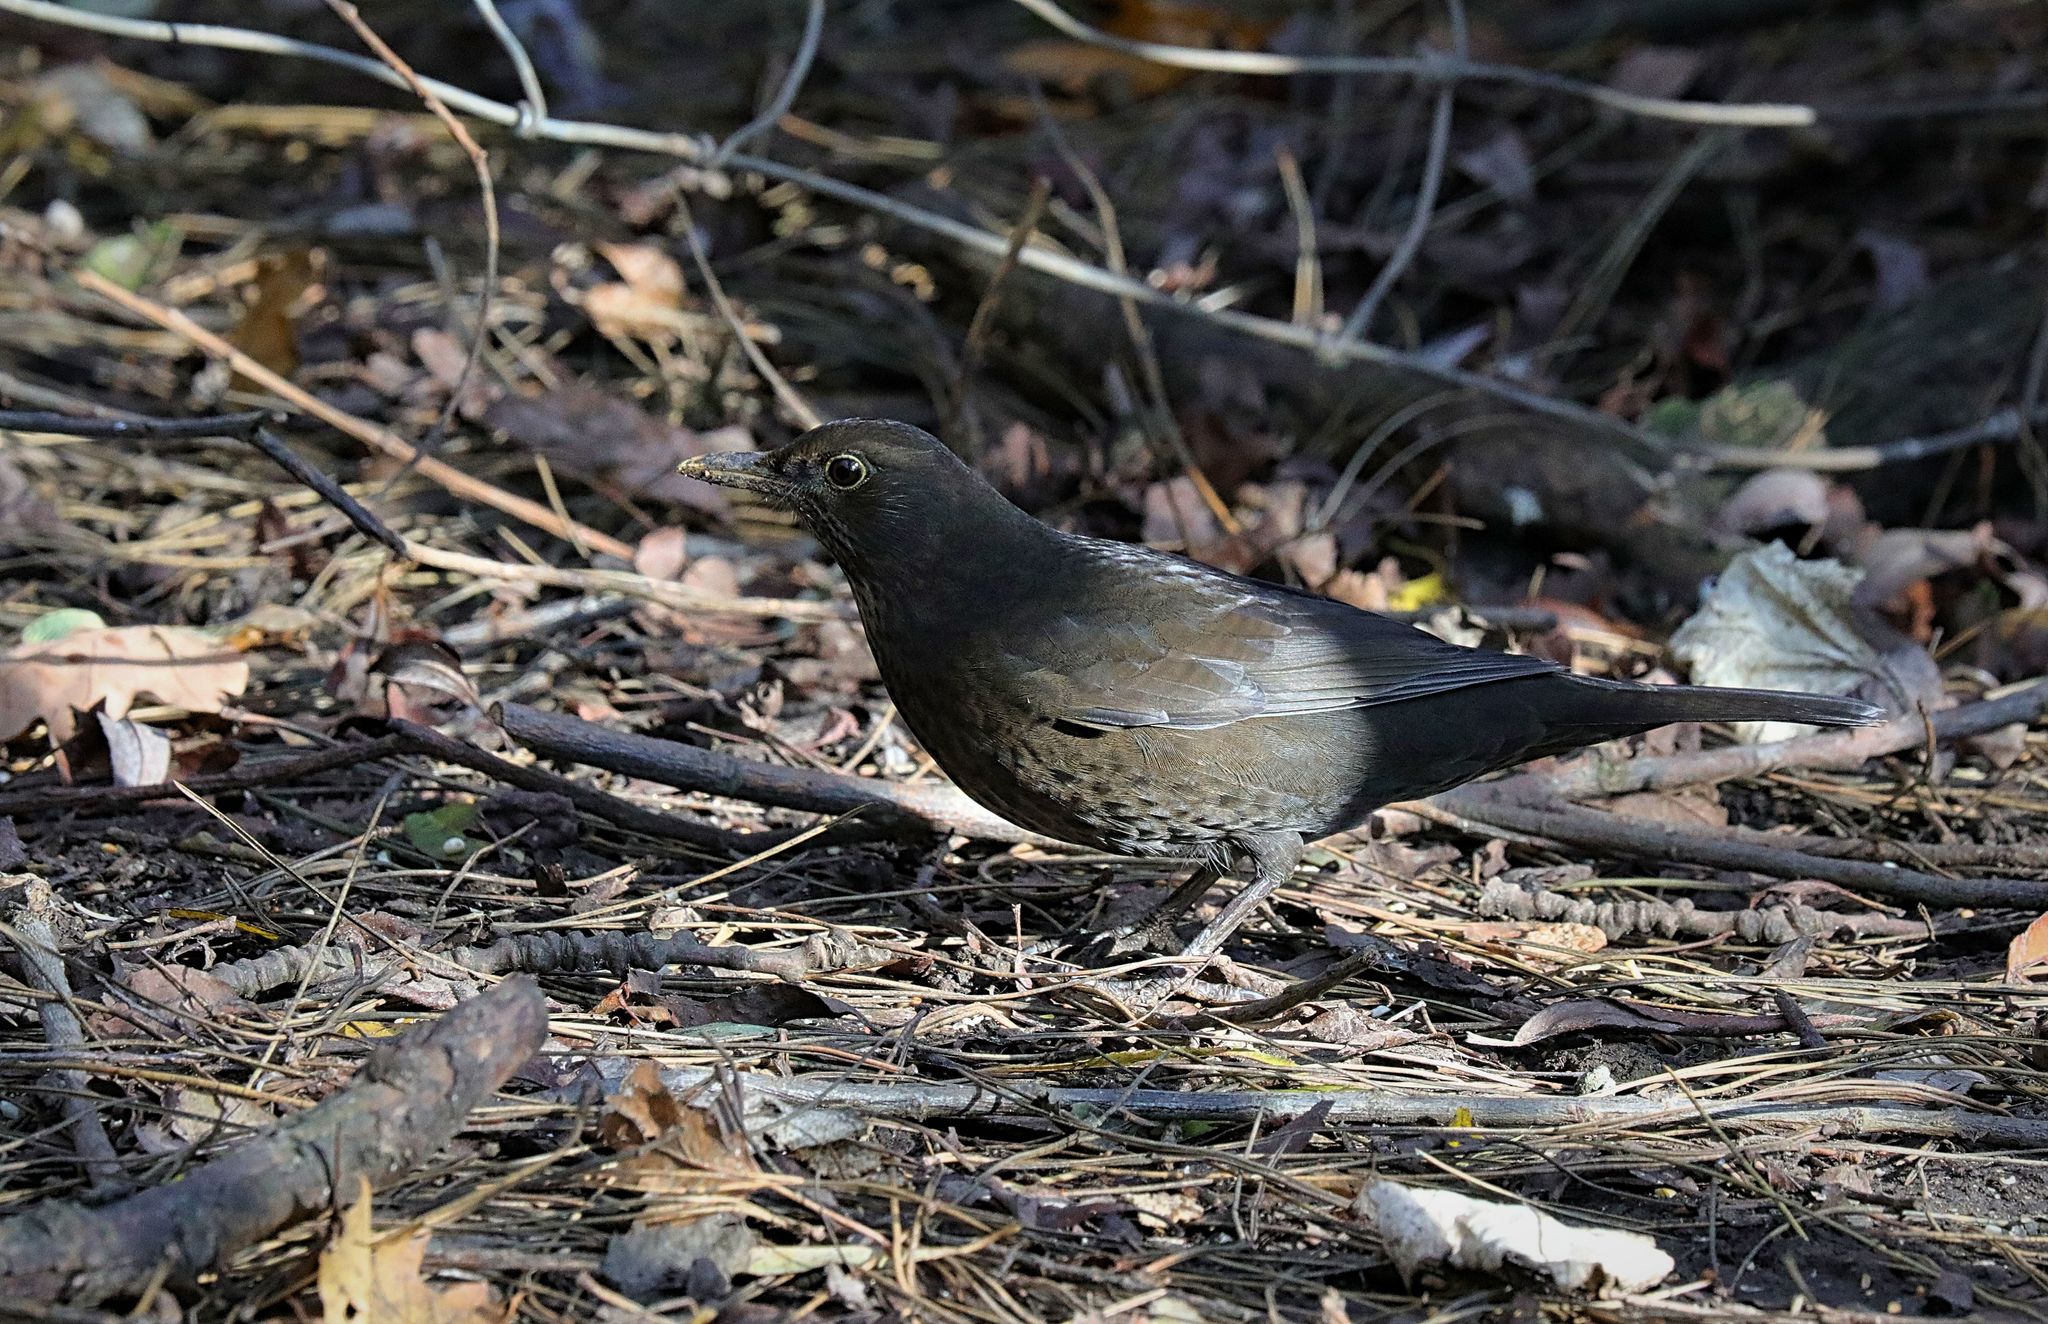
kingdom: Animalia
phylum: Chordata
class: Aves
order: Passeriformes
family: Turdidae
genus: Turdus
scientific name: Turdus merula
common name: Common blackbird
